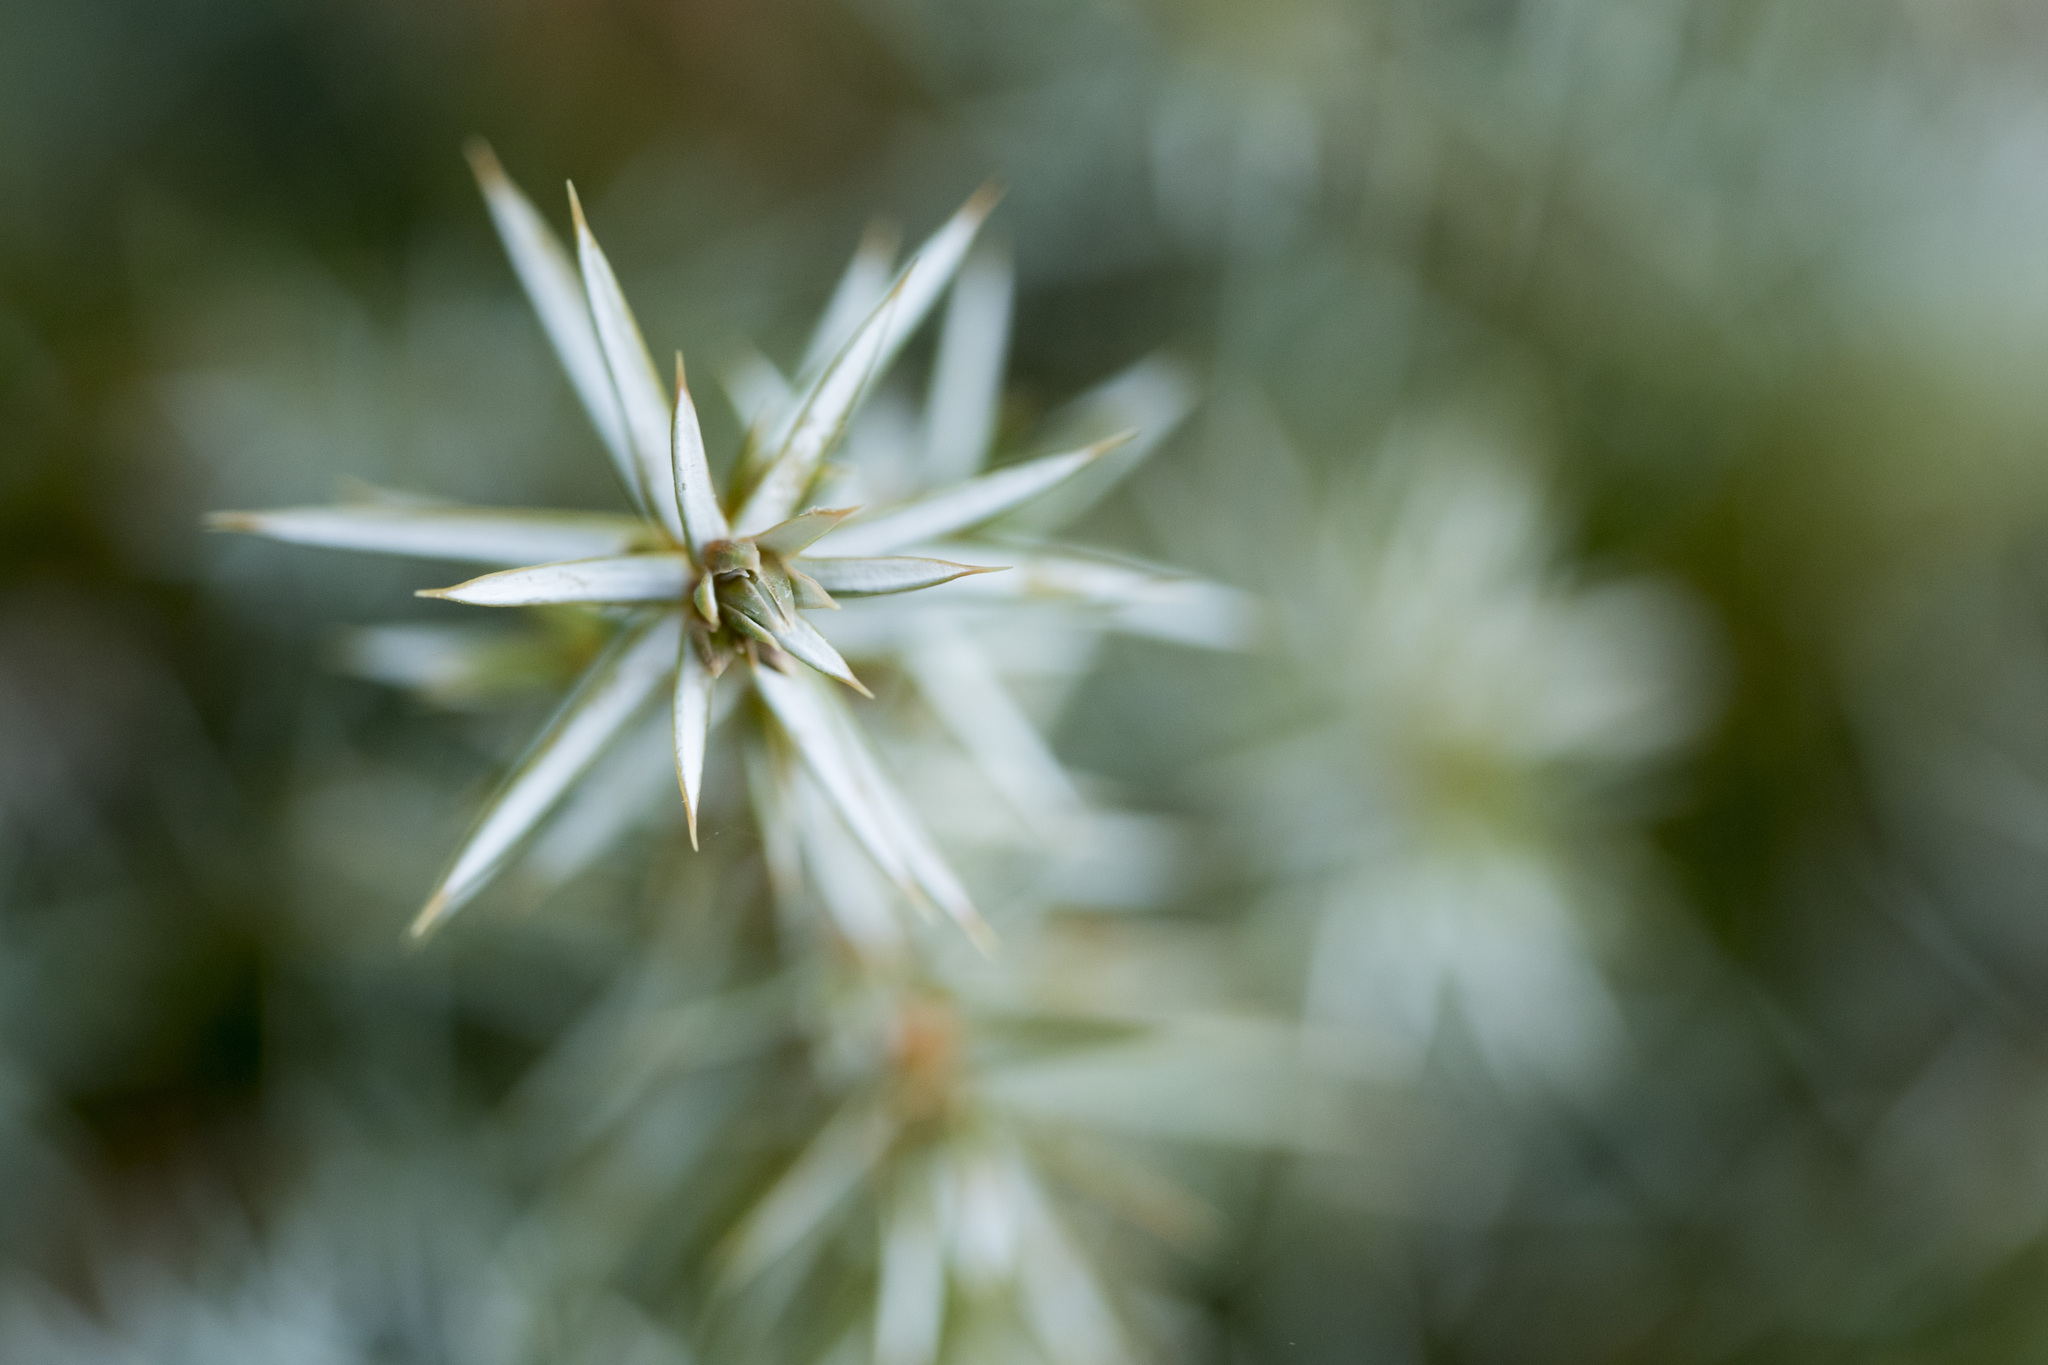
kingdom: Plantae
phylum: Tracheophyta
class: Pinopsida
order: Pinales
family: Cupressaceae
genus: Juniperus
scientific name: Juniperus formosana
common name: Formosan juniper
